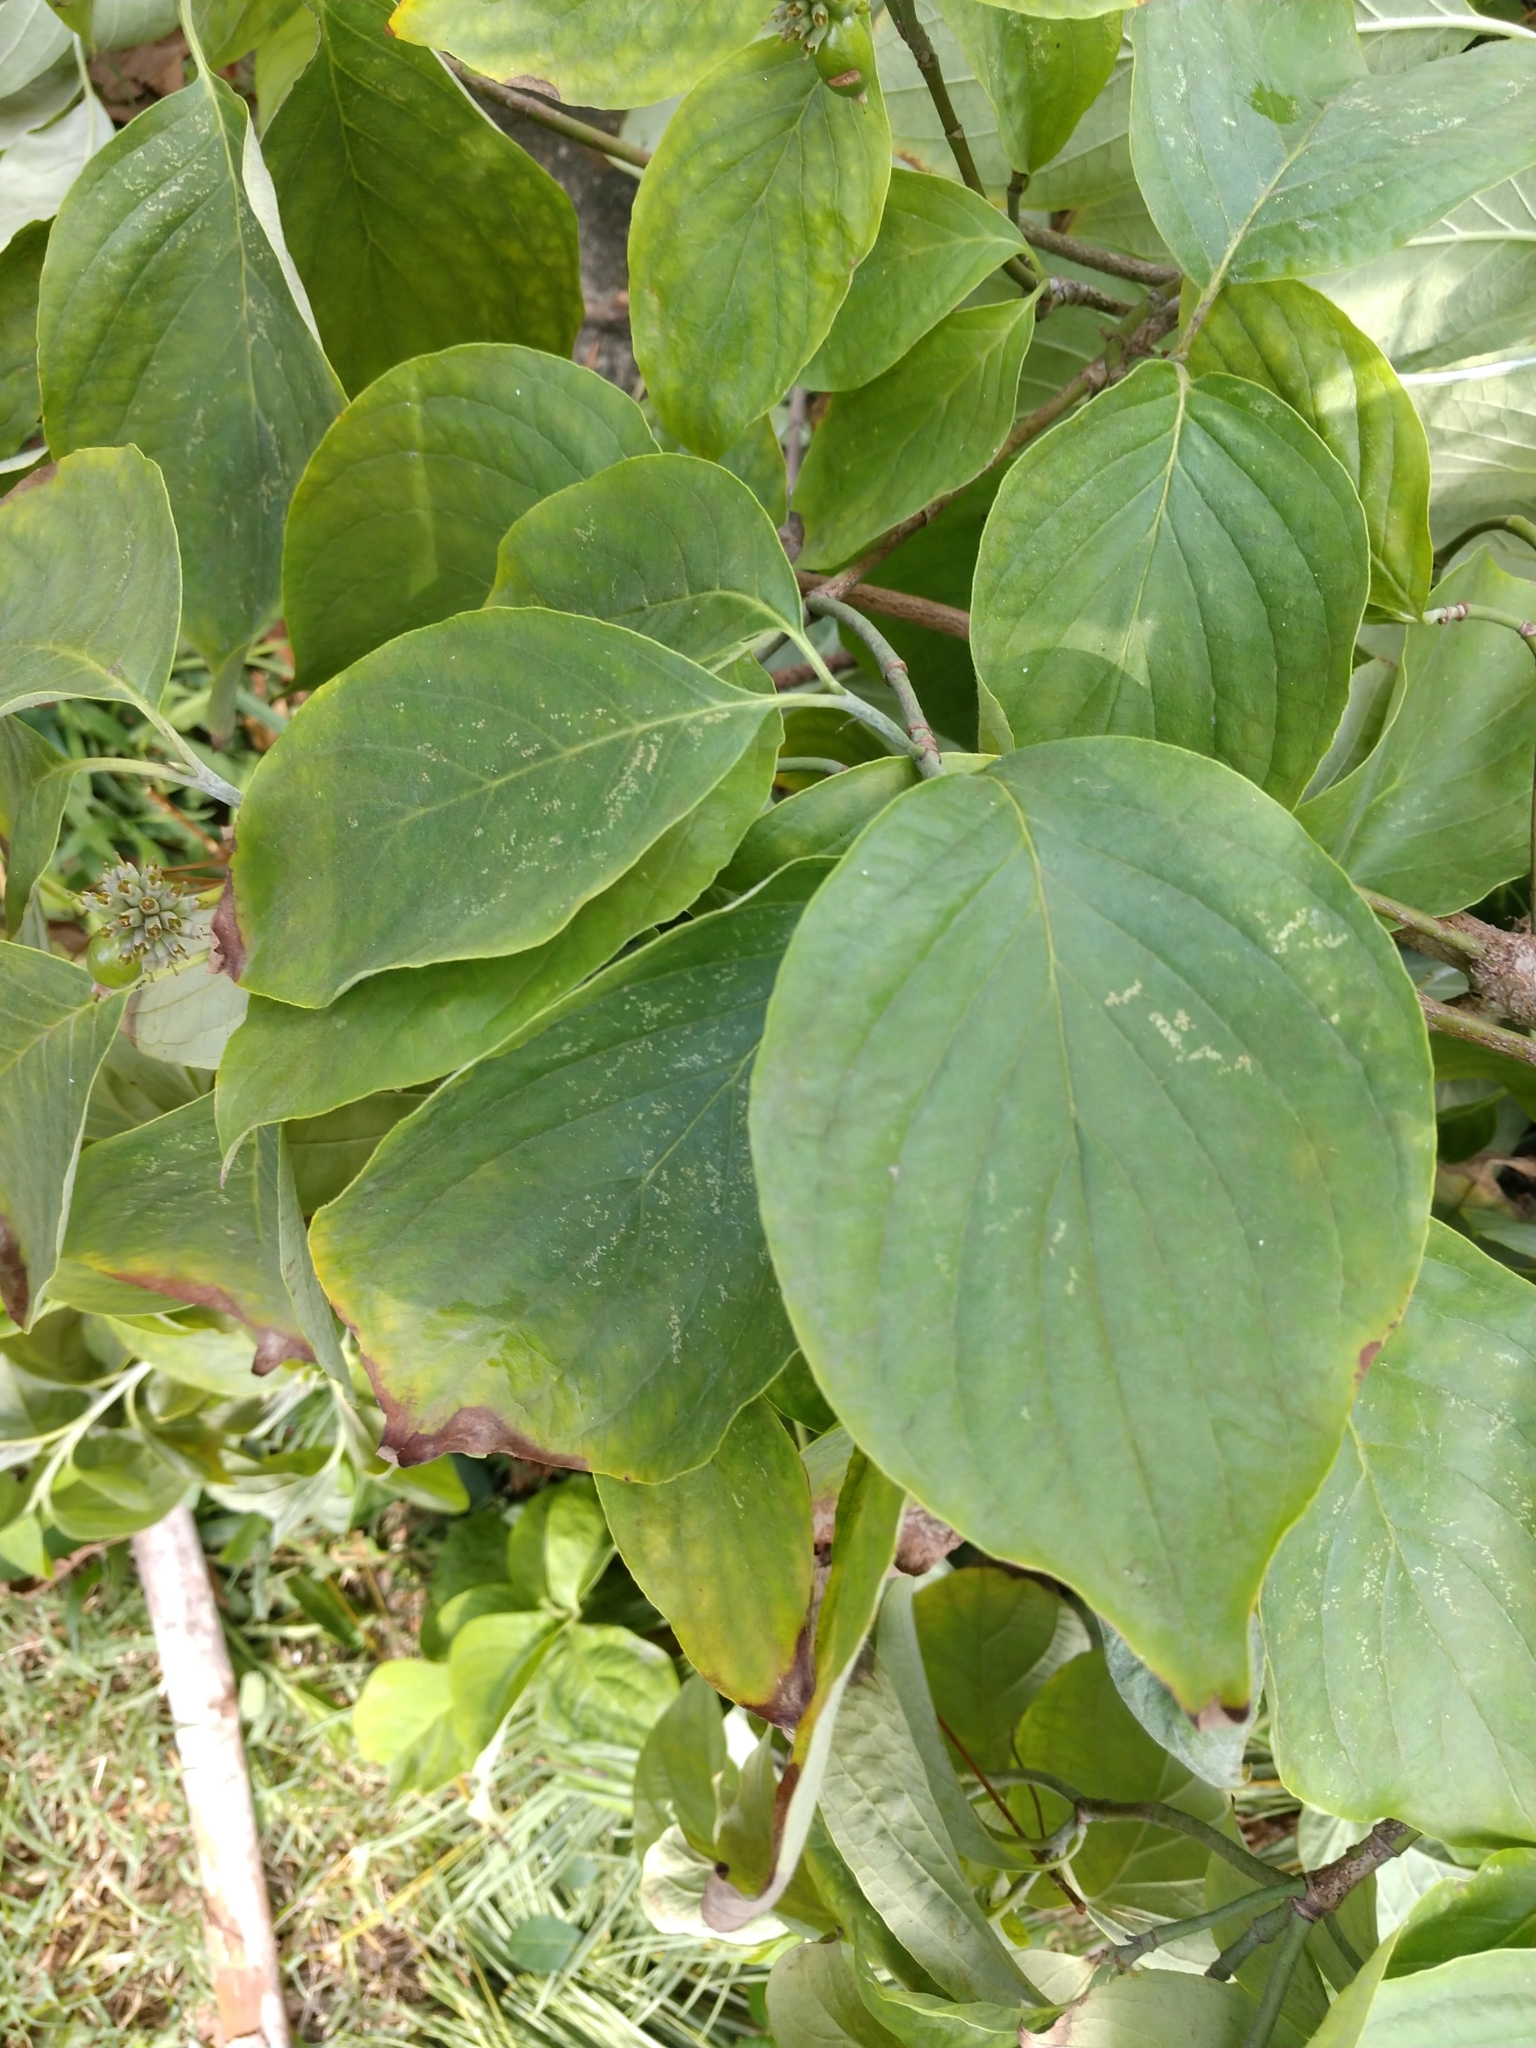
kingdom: Plantae
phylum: Tracheophyta
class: Magnoliopsida
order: Cornales
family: Cornaceae
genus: Cornus
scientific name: Cornus florida
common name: Flowering dogwood
